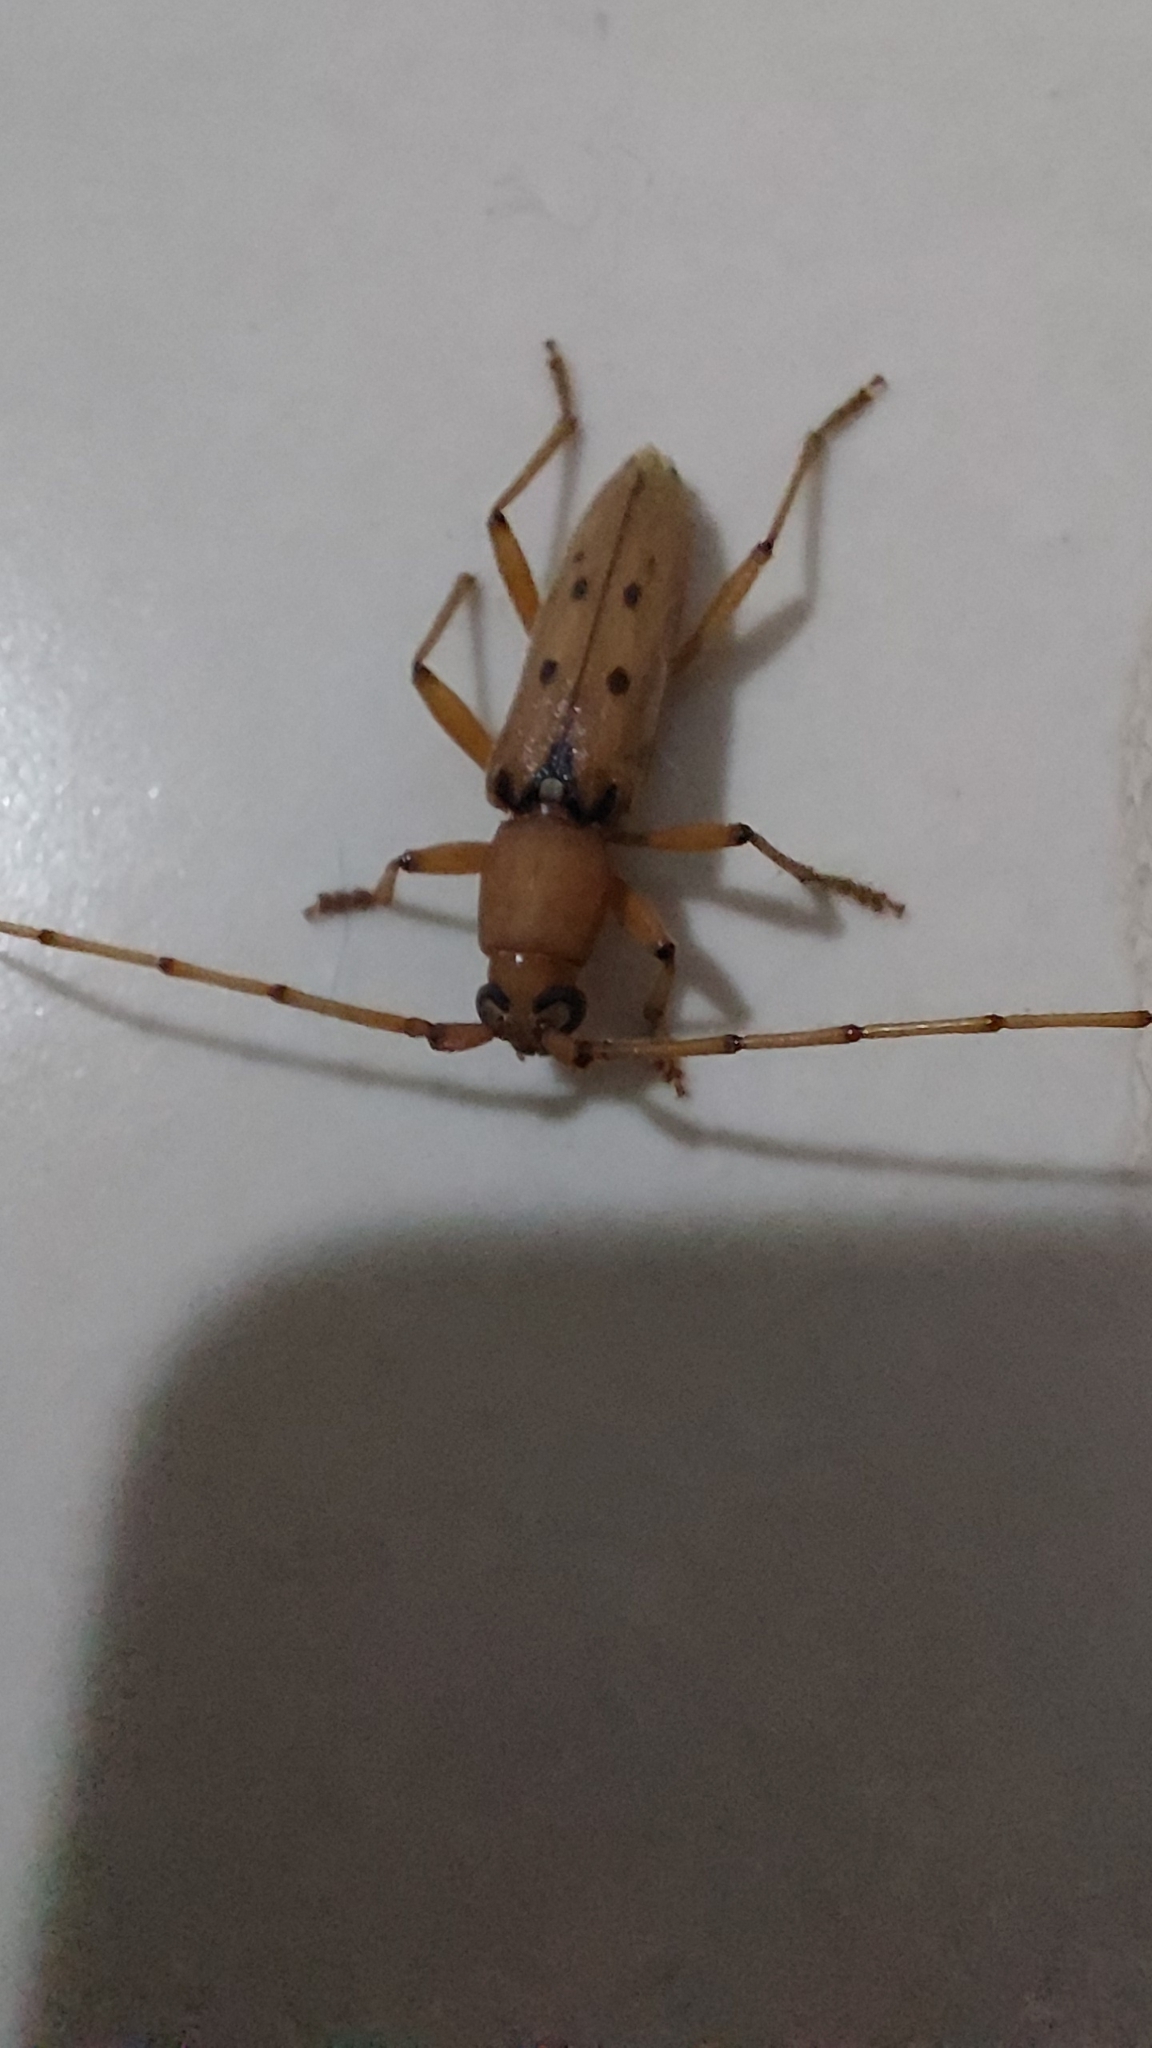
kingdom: Animalia
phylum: Arthropoda
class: Insecta
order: Coleoptera
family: Cerambycidae
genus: Achryson
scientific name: Achryson surinamum
